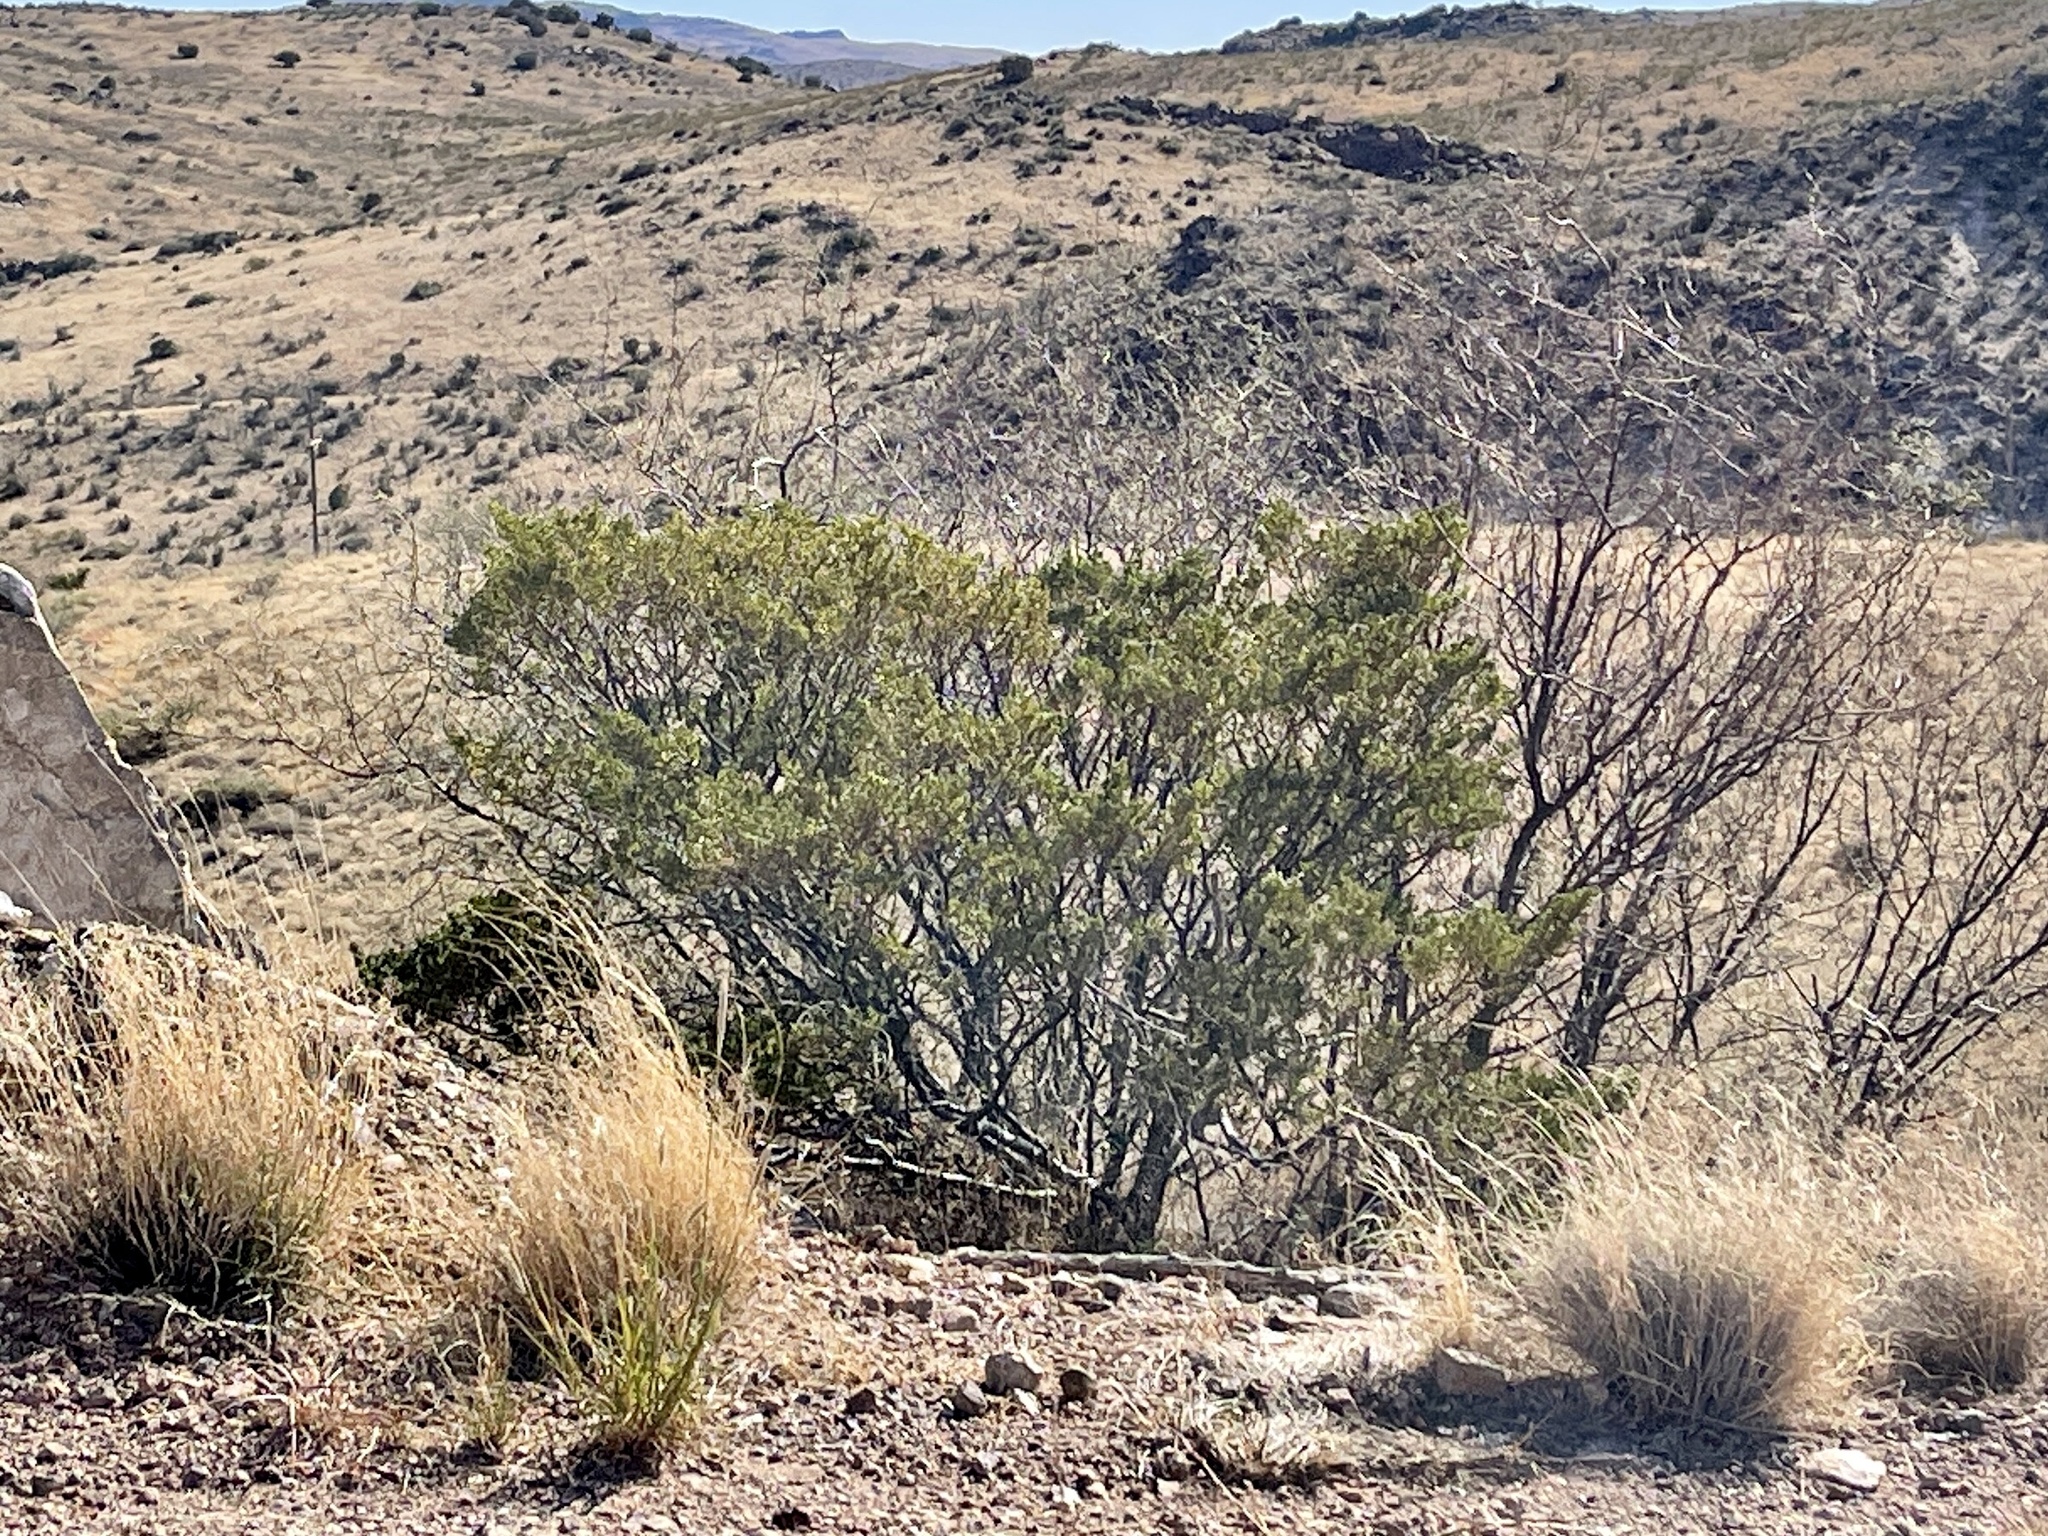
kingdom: Plantae
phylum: Tracheophyta
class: Magnoliopsida
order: Zygophyllales
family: Zygophyllaceae
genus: Larrea
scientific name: Larrea tridentata
